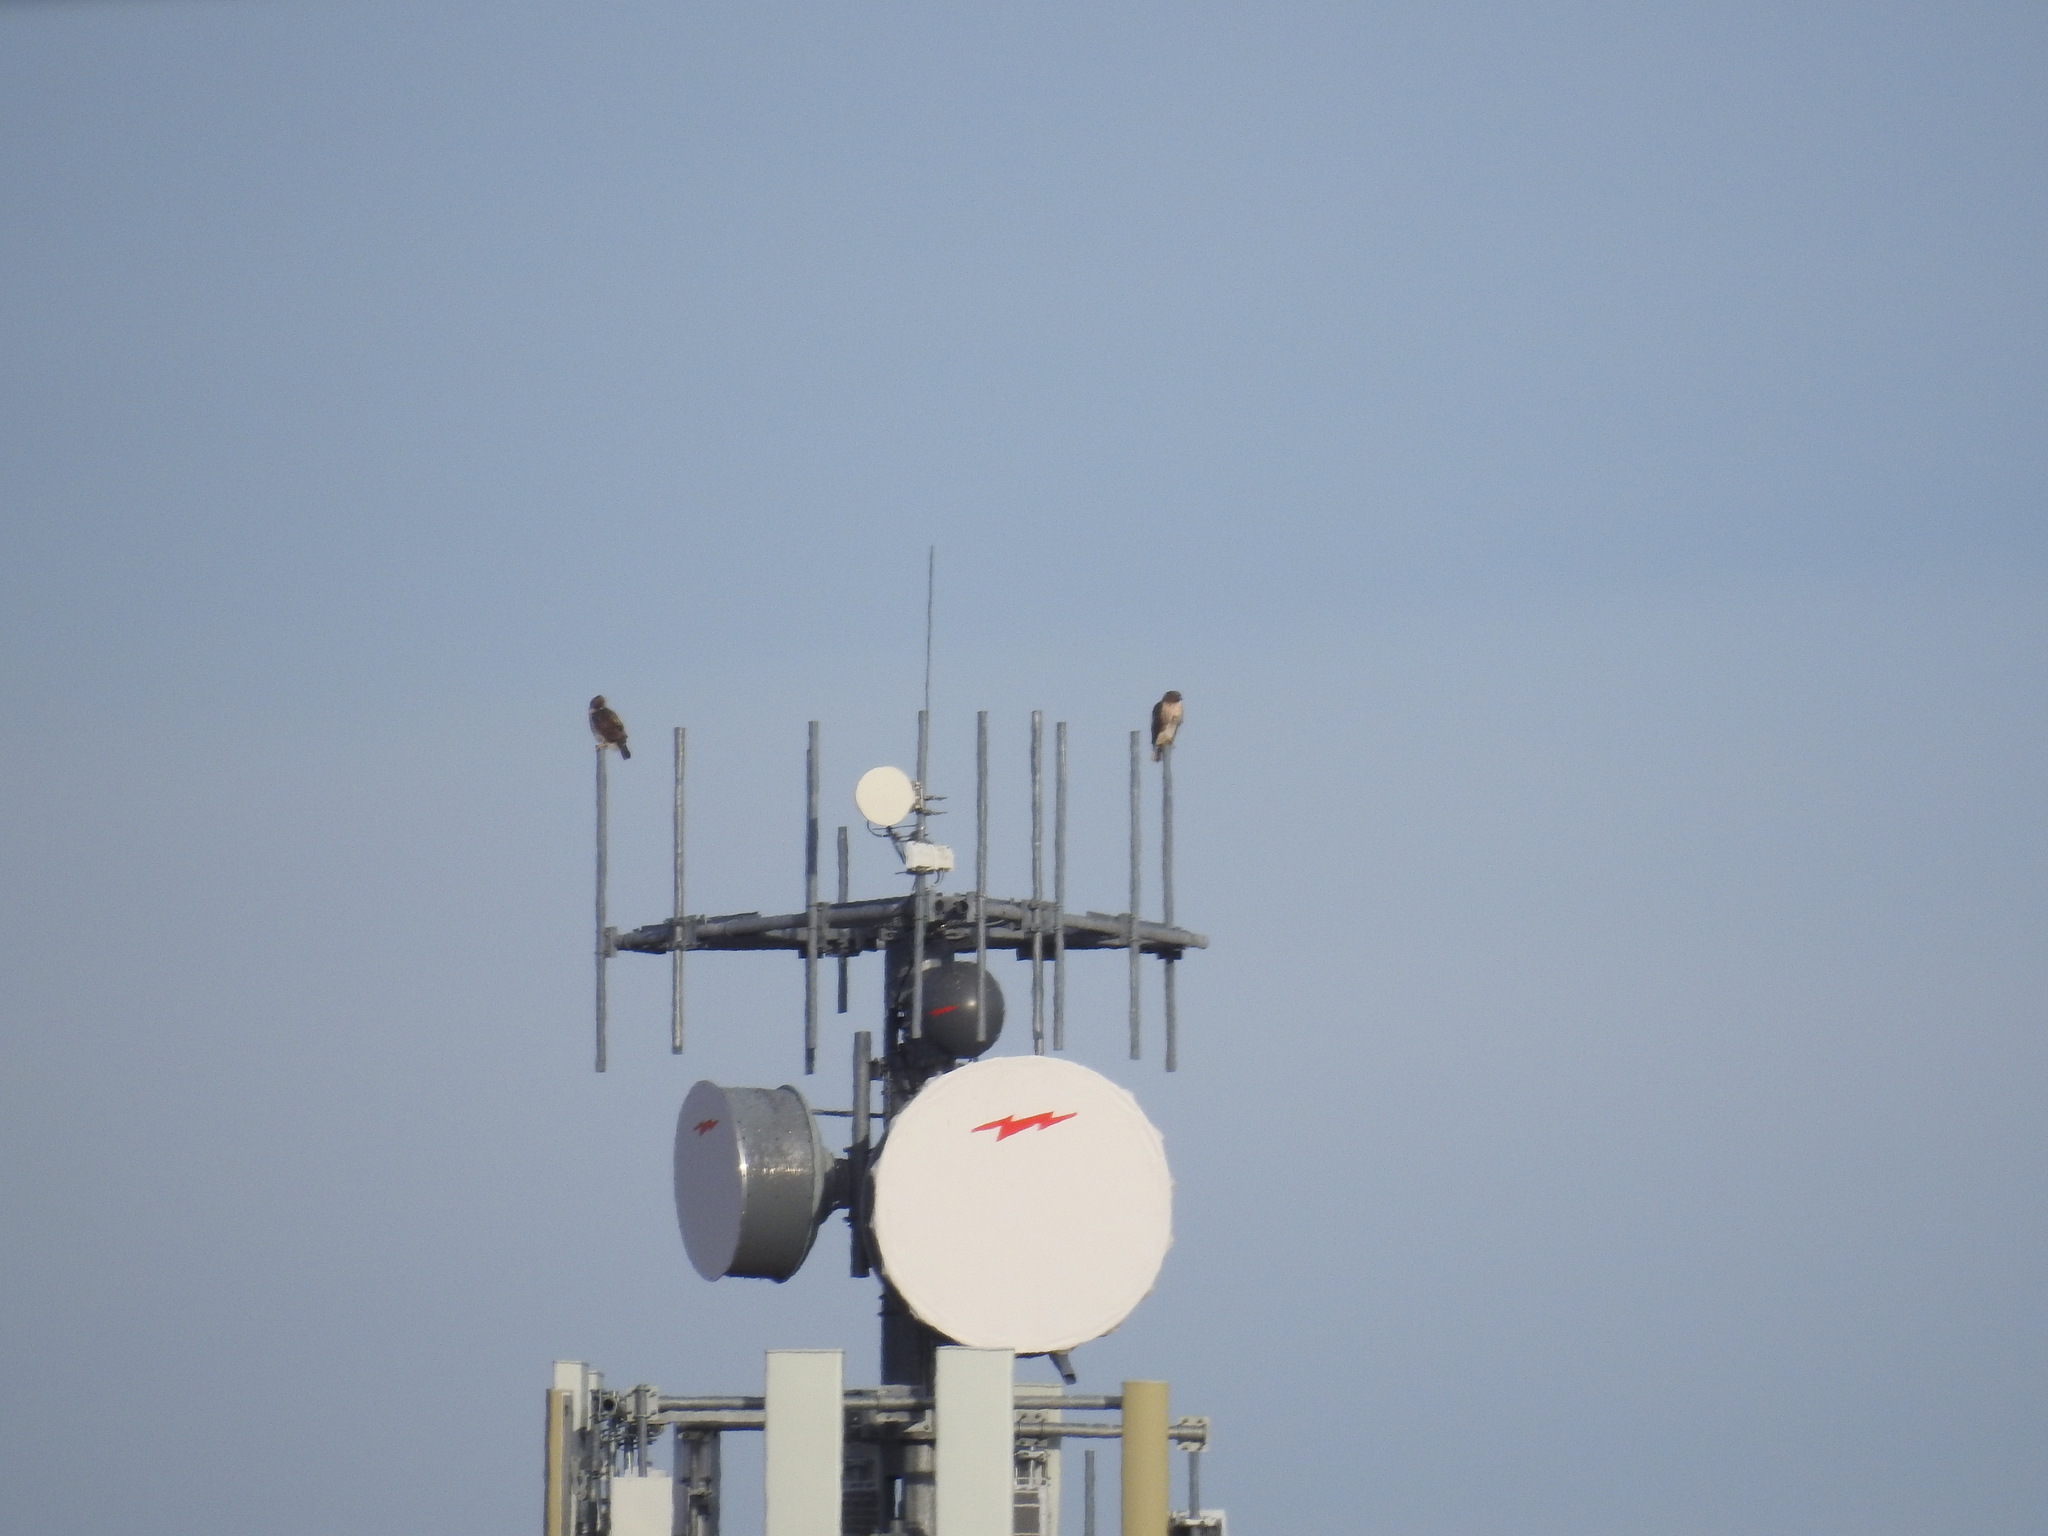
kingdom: Animalia
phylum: Chordata
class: Aves
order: Accipitriformes
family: Accipitridae
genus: Buteo
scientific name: Buteo jamaicensis
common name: Red-tailed hawk
